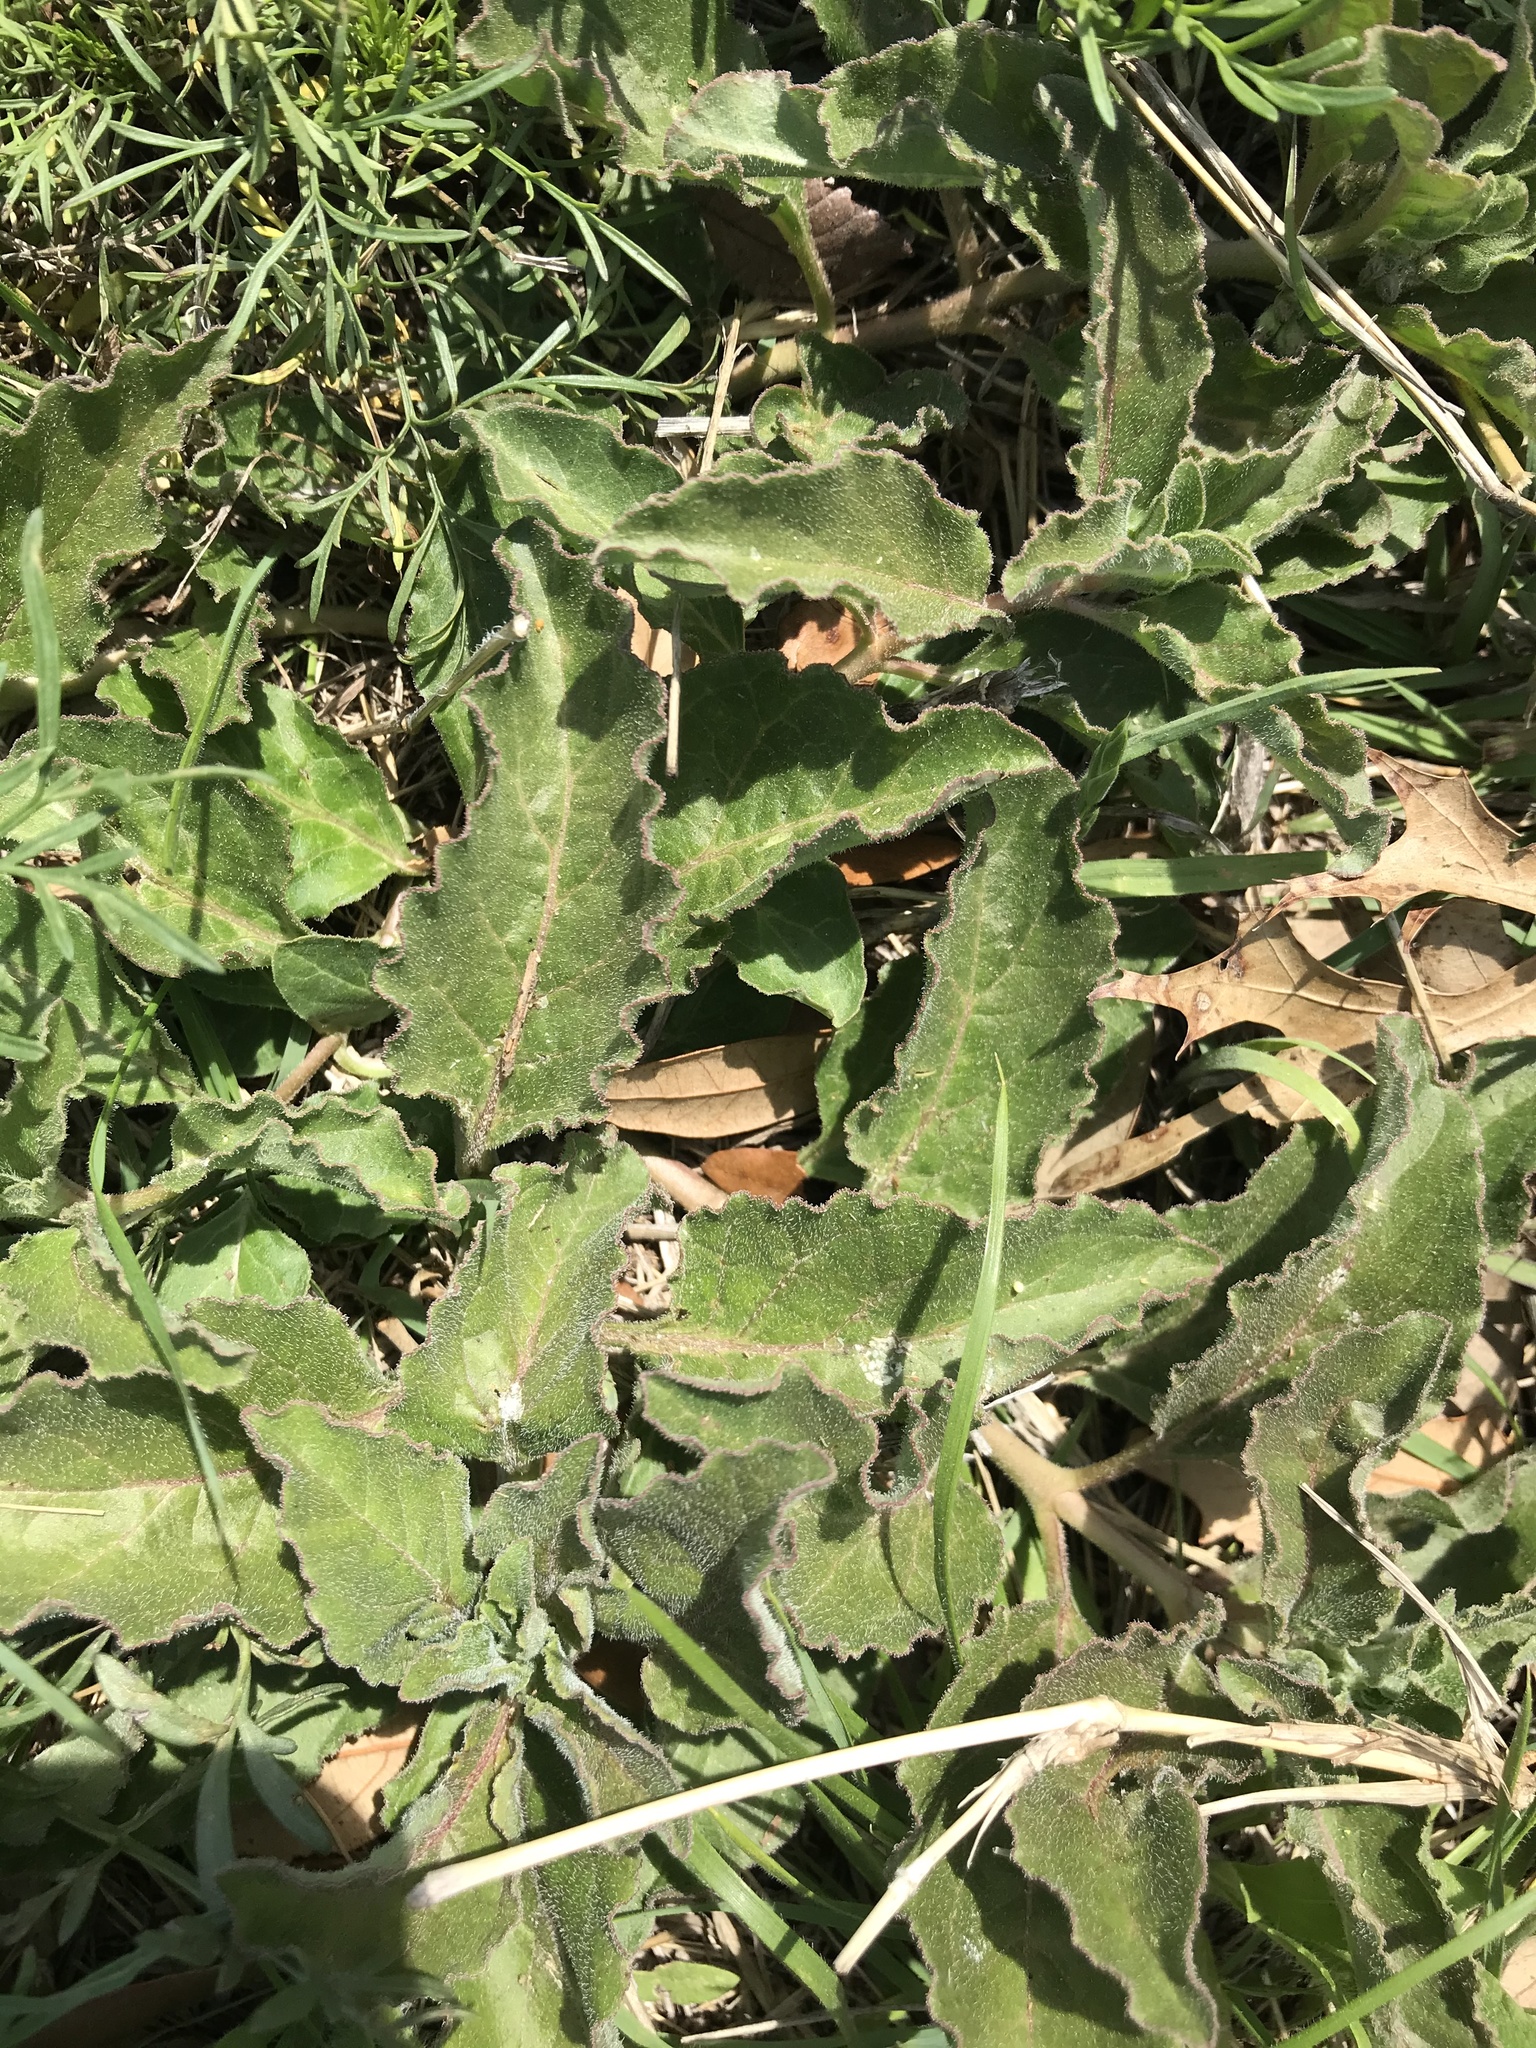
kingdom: Plantae
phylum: Tracheophyta
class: Magnoliopsida
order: Gentianales
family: Apocynaceae
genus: Asclepias
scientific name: Asclepias oenotheroides
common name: Zizotes milkweed
